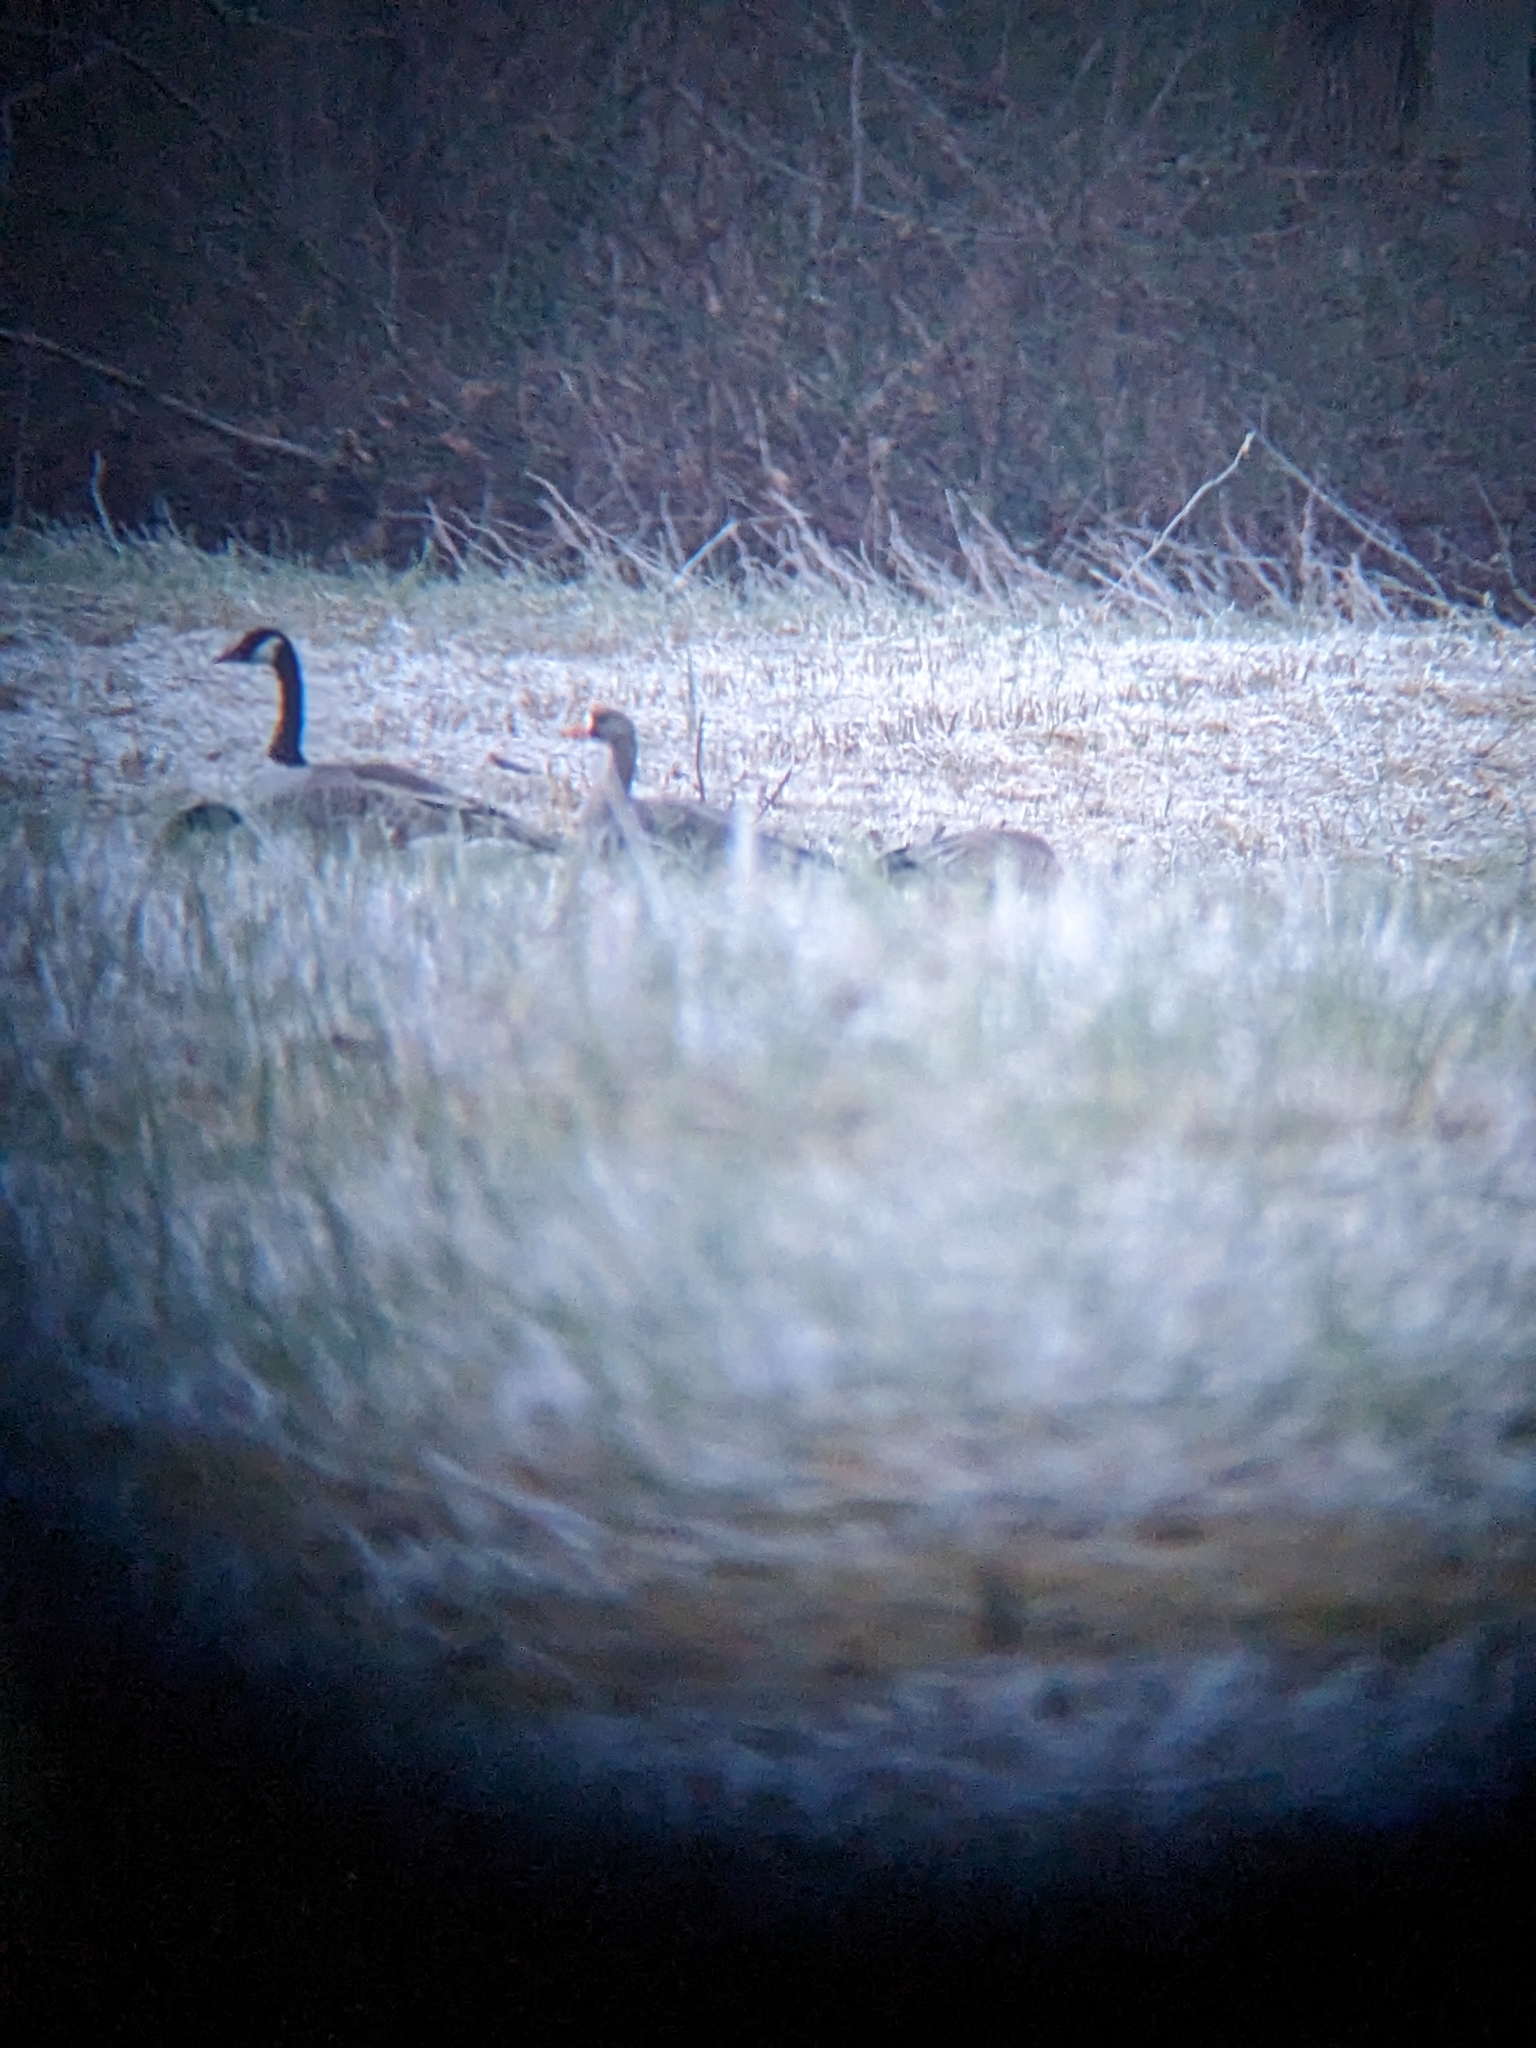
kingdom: Animalia
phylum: Chordata
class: Aves
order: Anseriformes
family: Anatidae
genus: Anser
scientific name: Anser albifrons
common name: Greater white-fronted goose
